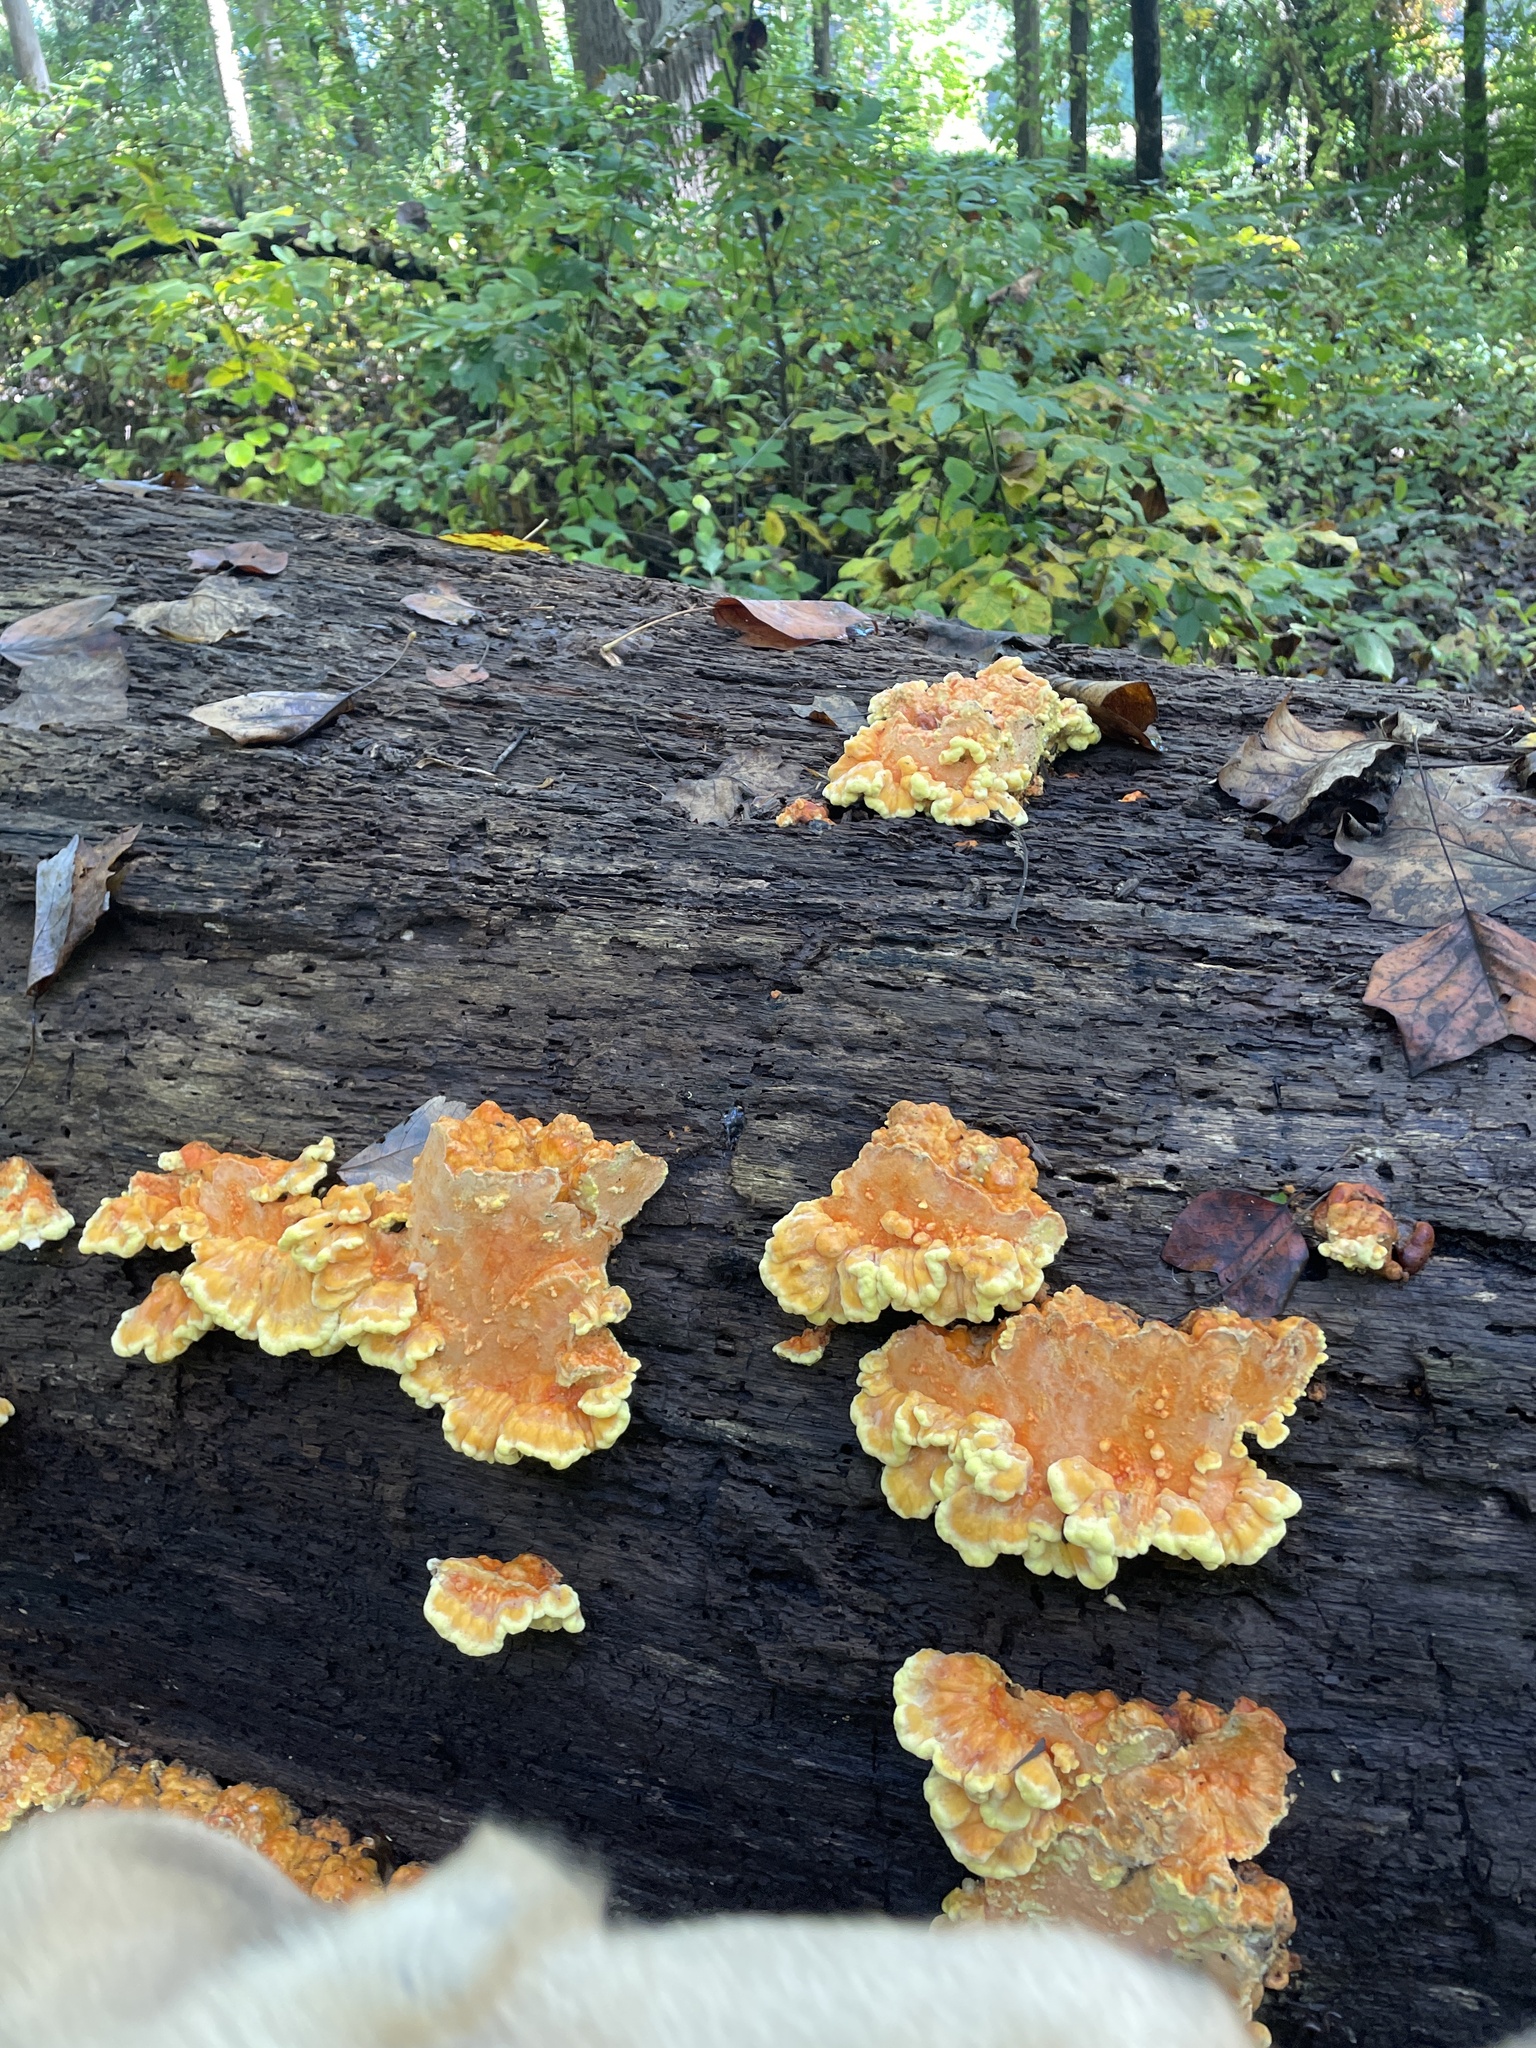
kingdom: Fungi
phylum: Basidiomycota
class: Agaricomycetes
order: Polyporales
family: Laetiporaceae
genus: Laetiporus
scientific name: Laetiporus sulphureus
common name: Chicken of the woods
